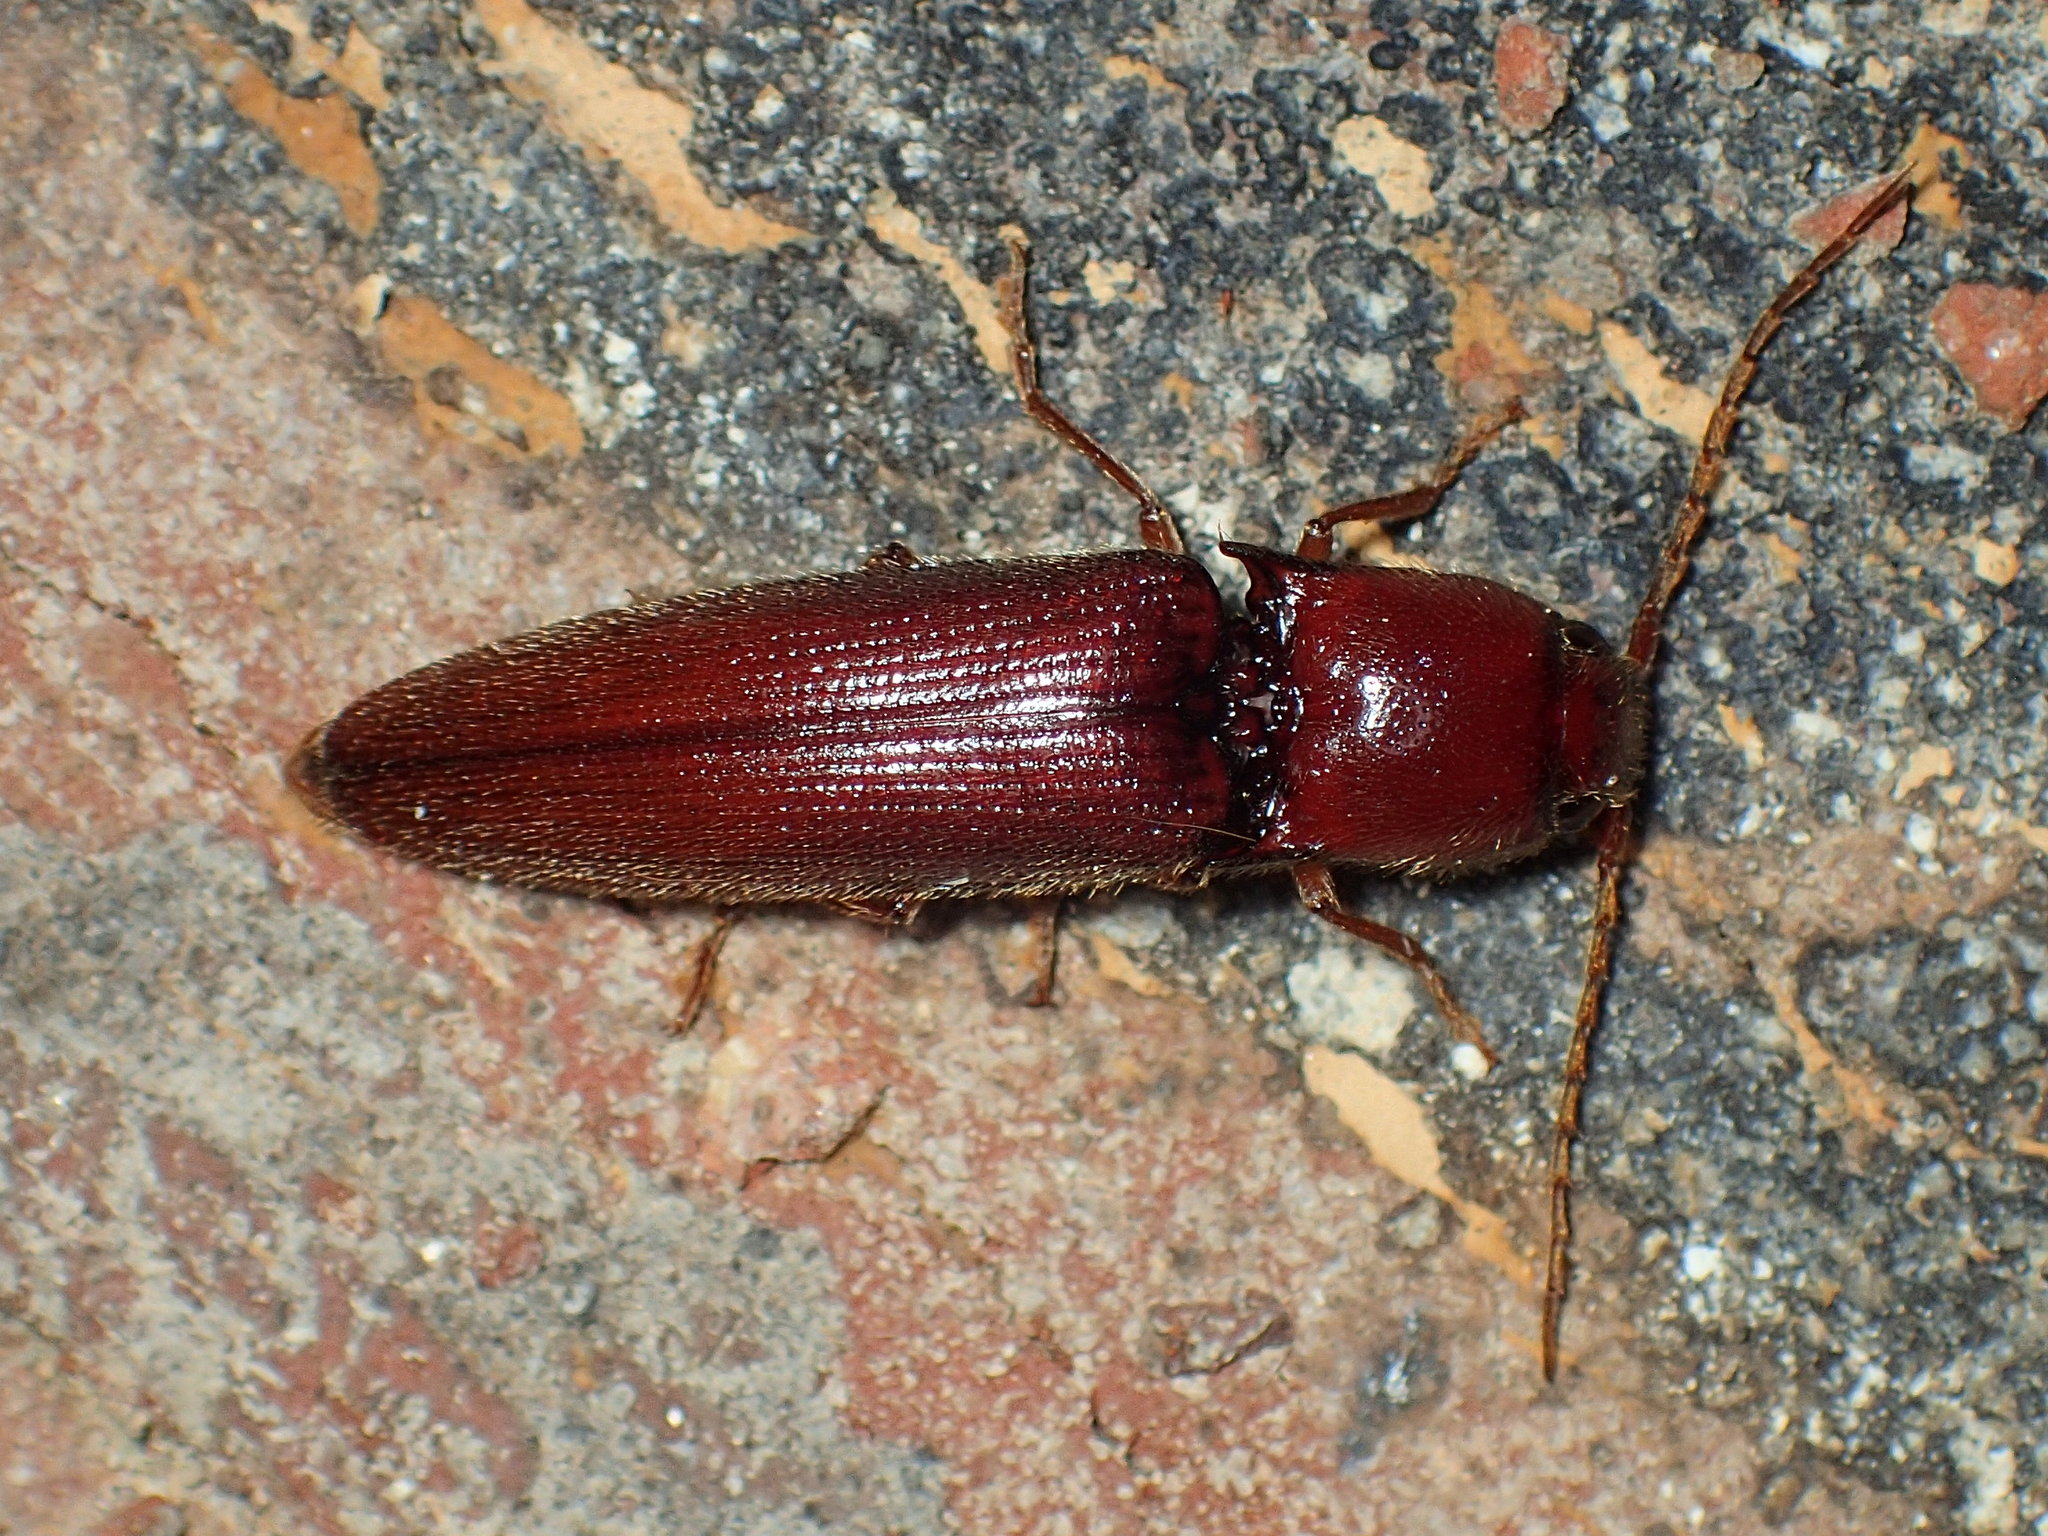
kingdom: Animalia
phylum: Arthropoda
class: Insecta
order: Coleoptera
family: Elateridae
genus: Dicrepidius
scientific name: Dicrepidius palmatus
